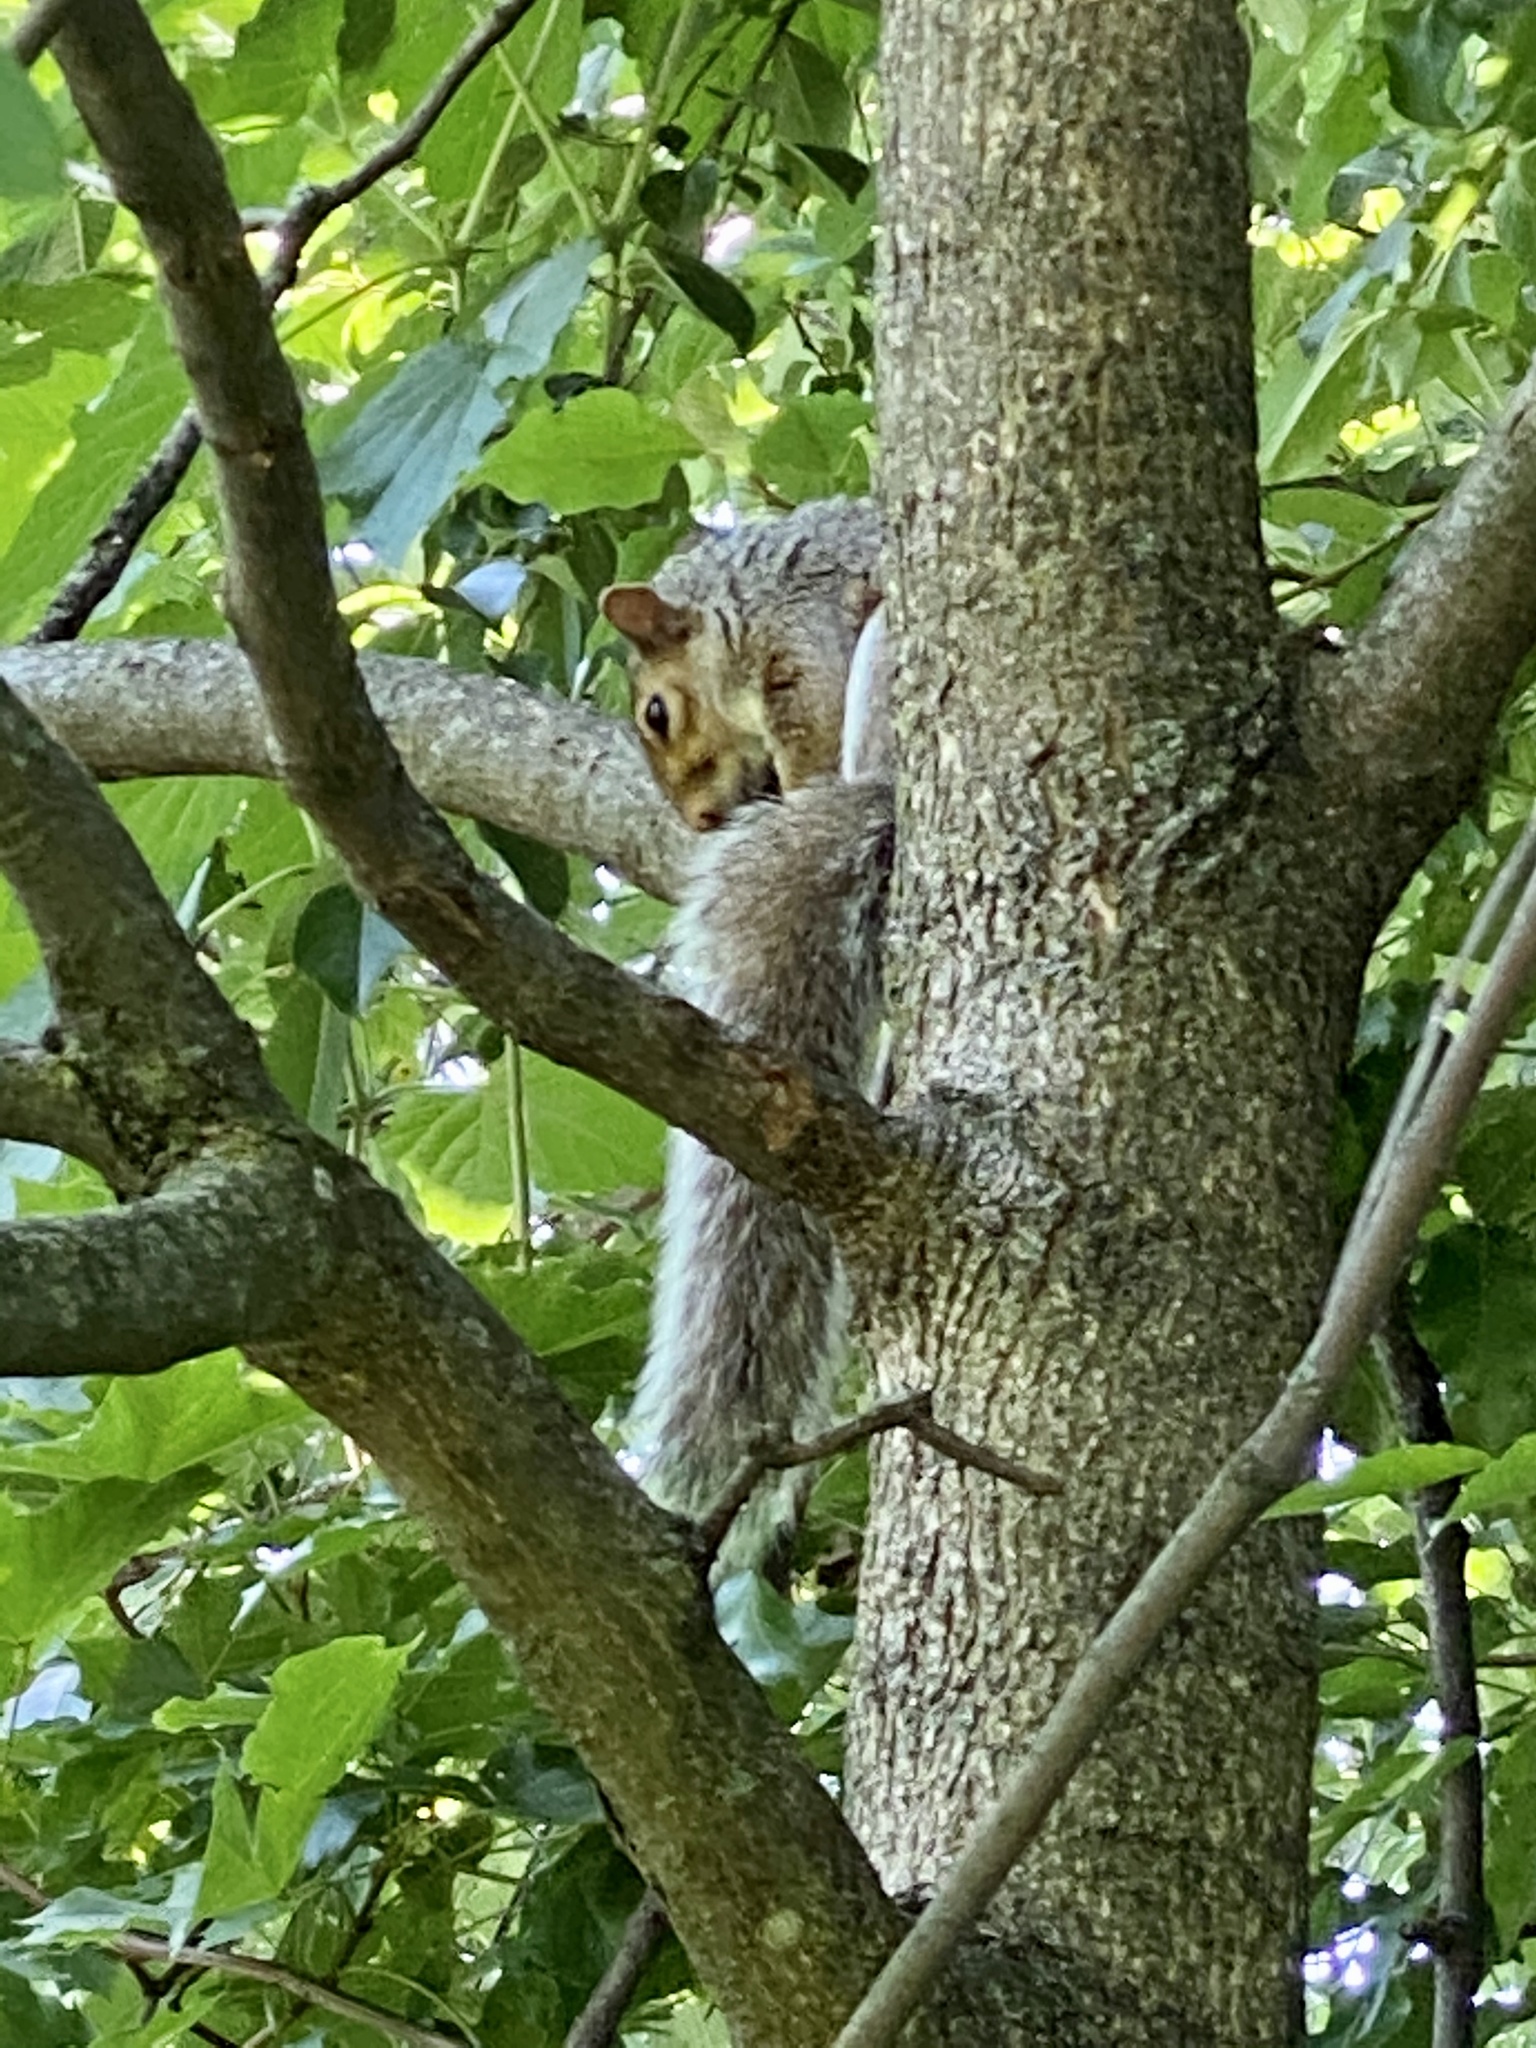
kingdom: Animalia
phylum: Chordata
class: Mammalia
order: Rodentia
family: Sciuridae
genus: Sciurus
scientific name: Sciurus carolinensis
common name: Eastern gray squirrel
